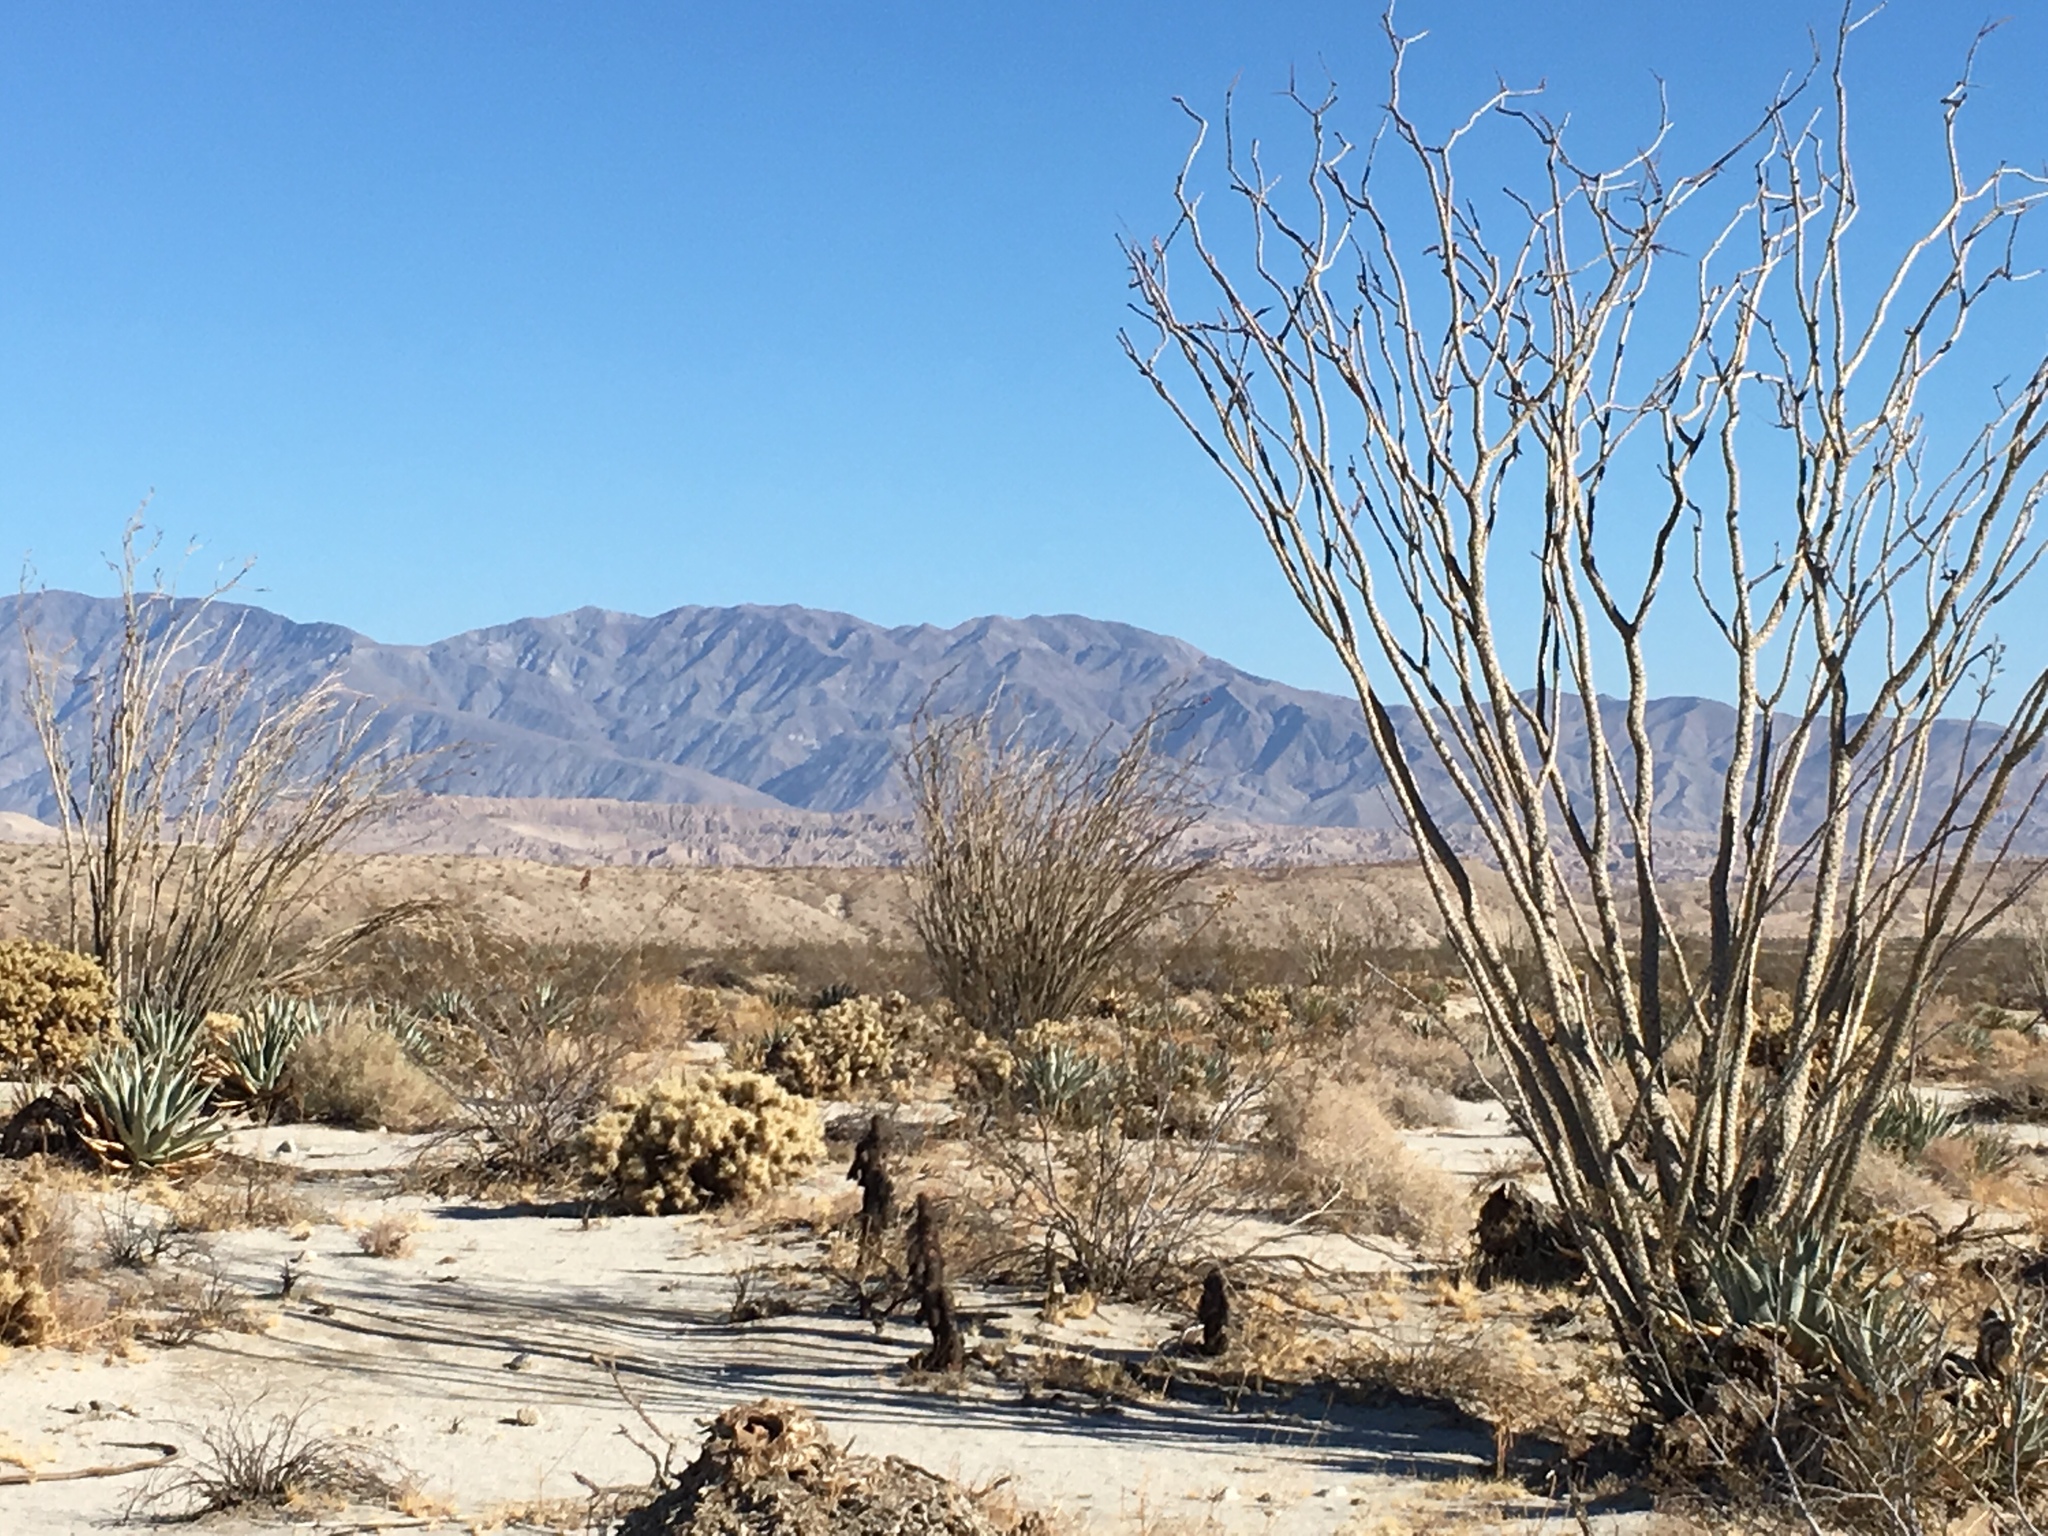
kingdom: Plantae
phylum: Tracheophyta
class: Magnoliopsida
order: Ericales
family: Fouquieriaceae
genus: Fouquieria
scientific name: Fouquieria splendens
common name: Vine-cactus
